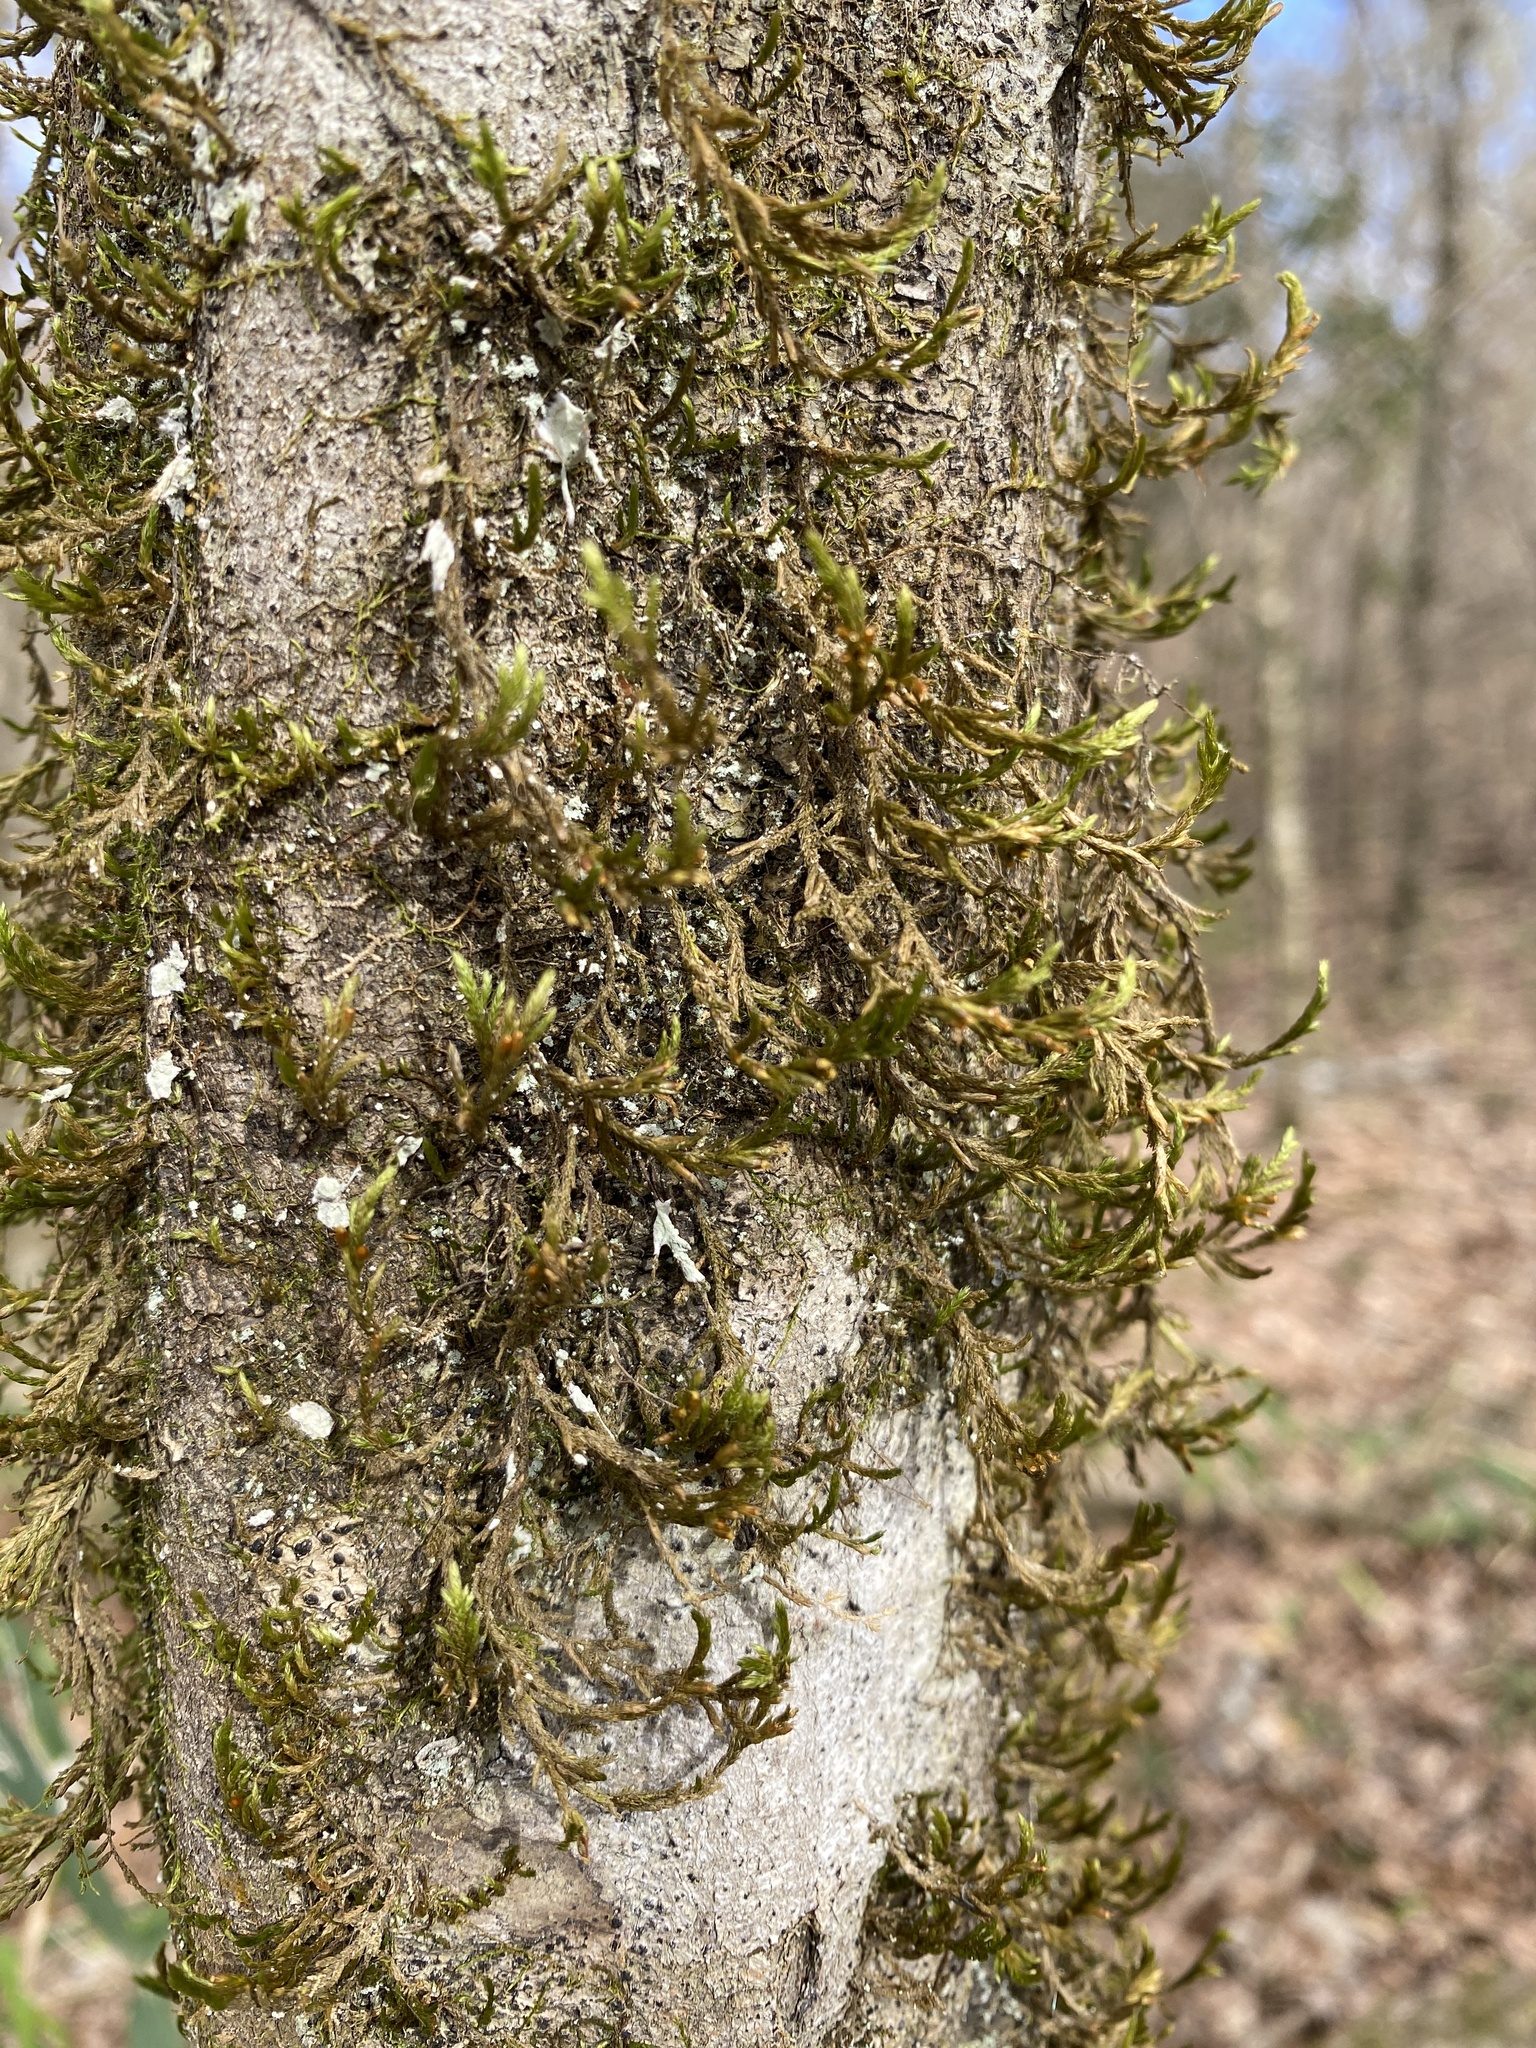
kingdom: Plantae
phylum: Bryophyta
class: Bryopsida
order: Hypnales
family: Neckeraceae
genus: Forsstroemia
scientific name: Forsstroemia trichomitria
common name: Fan moss
